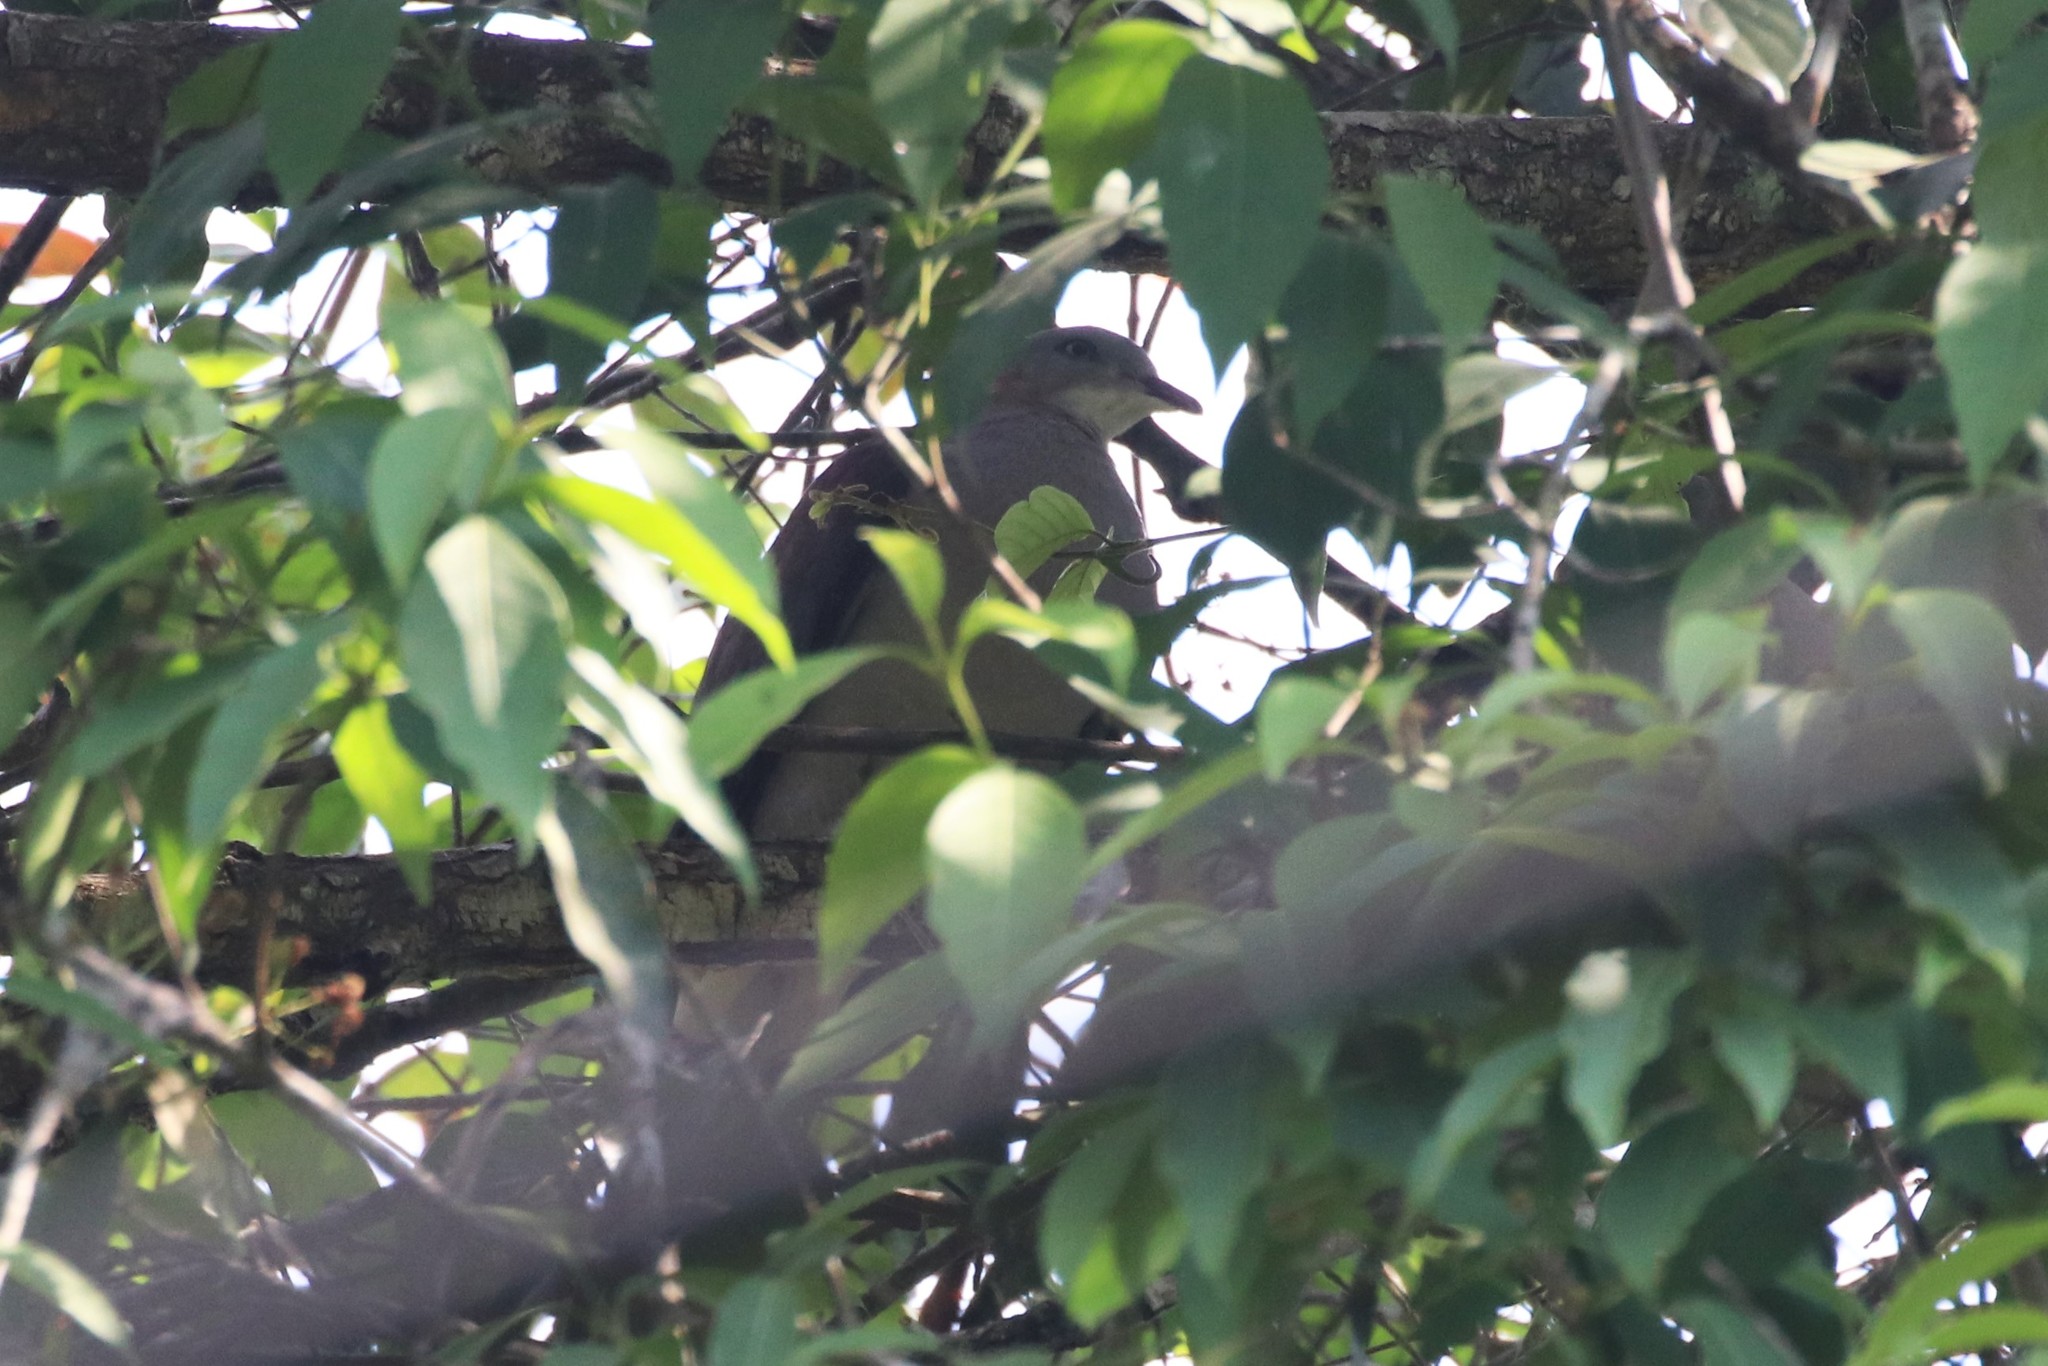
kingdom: Animalia
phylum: Chordata
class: Aves
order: Columbiformes
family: Columbidae
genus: Ducula
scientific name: Ducula badia
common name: Mountain imperial pigeon
